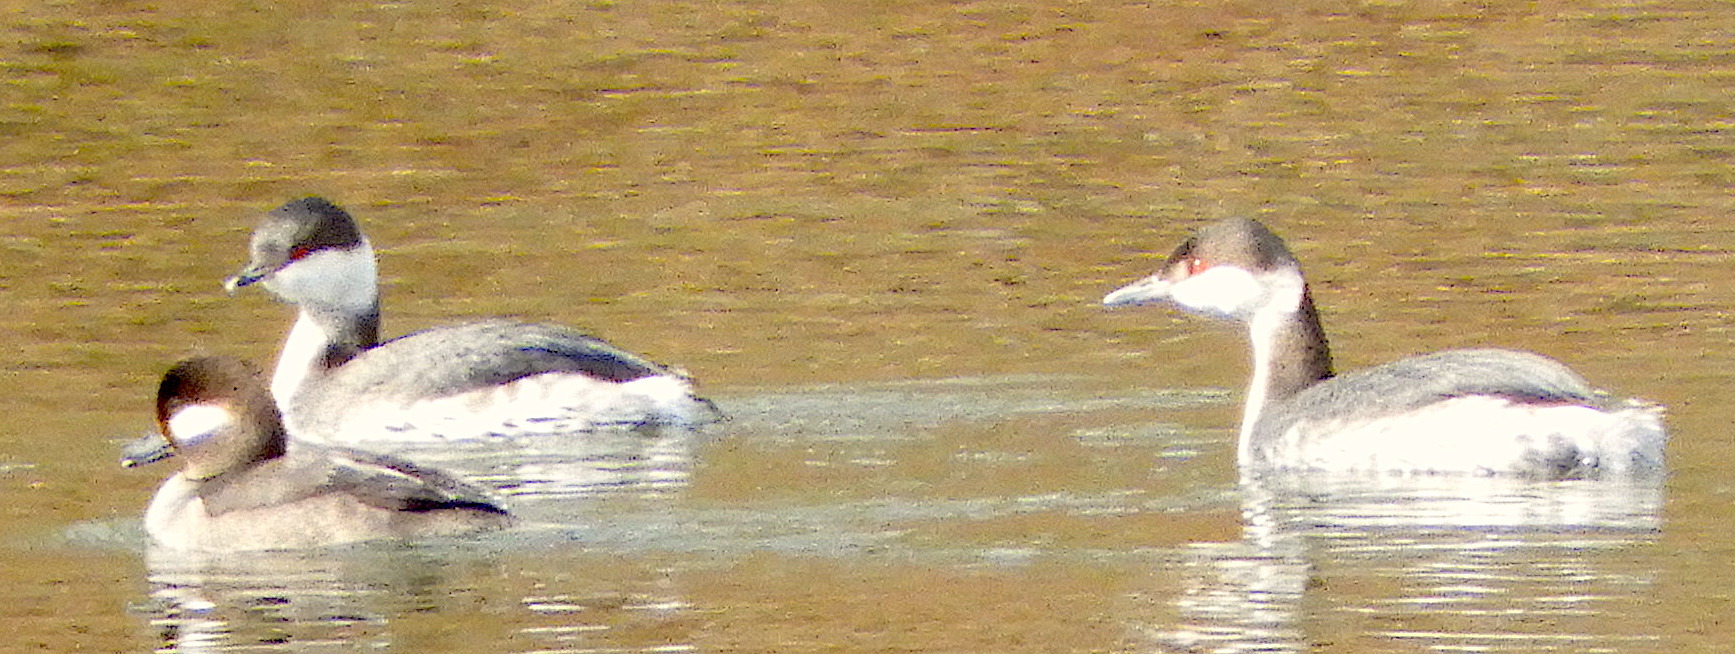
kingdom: Animalia
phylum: Chordata
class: Aves
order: Podicipediformes
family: Podicipedidae
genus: Podiceps
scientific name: Podiceps auritus
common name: Horned grebe
